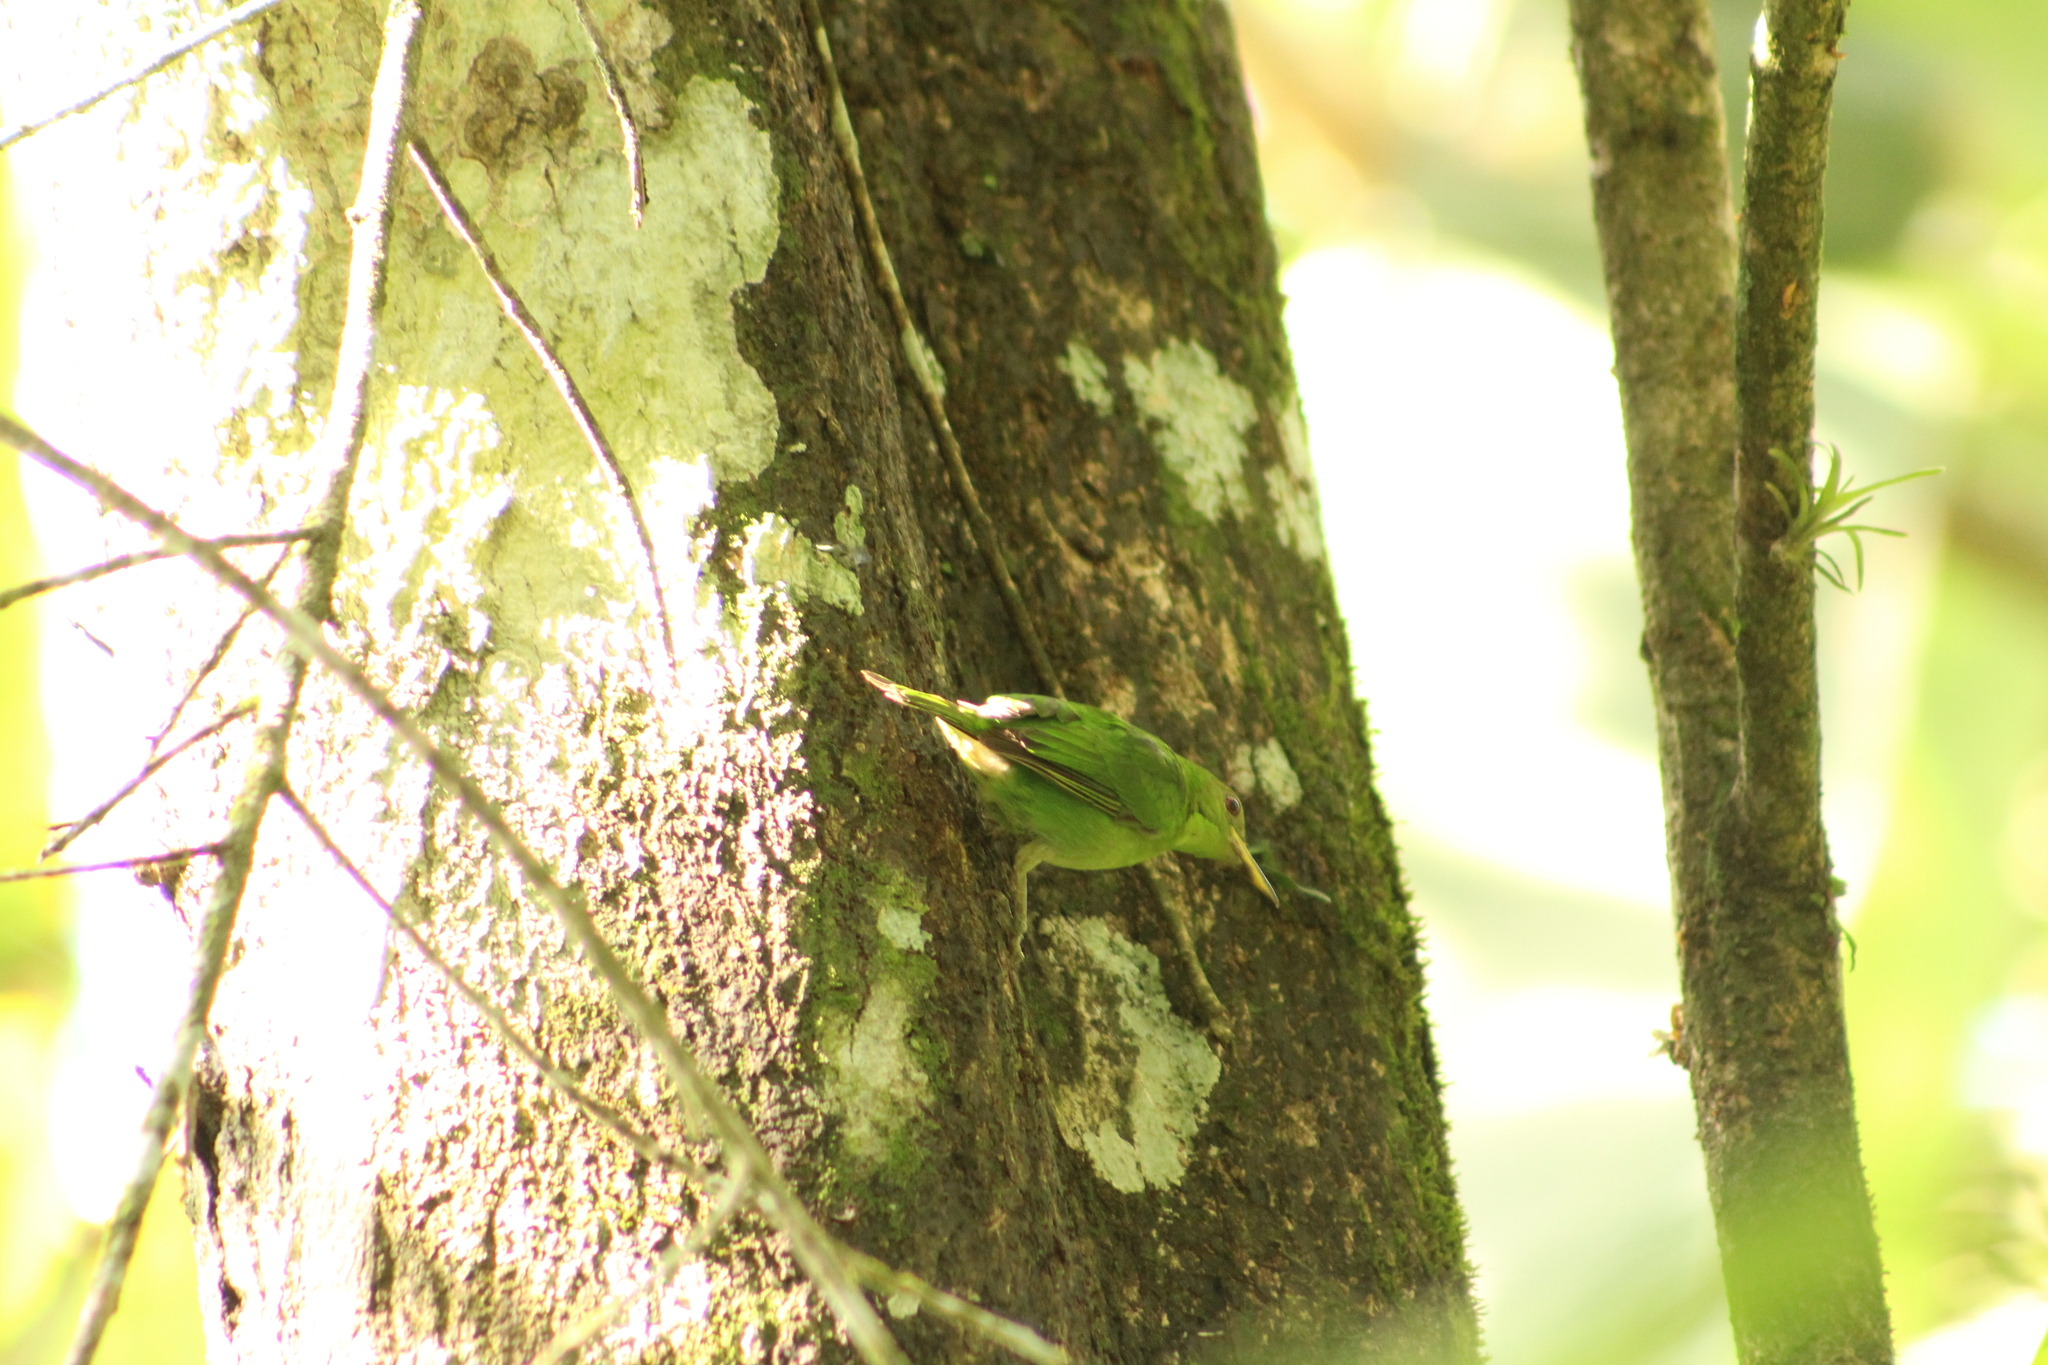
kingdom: Animalia
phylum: Chordata
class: Aves
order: Passeriformes
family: Thraupidae
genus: Chlorophanes
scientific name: Chlorophanes spiza
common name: Green honeycreeper
